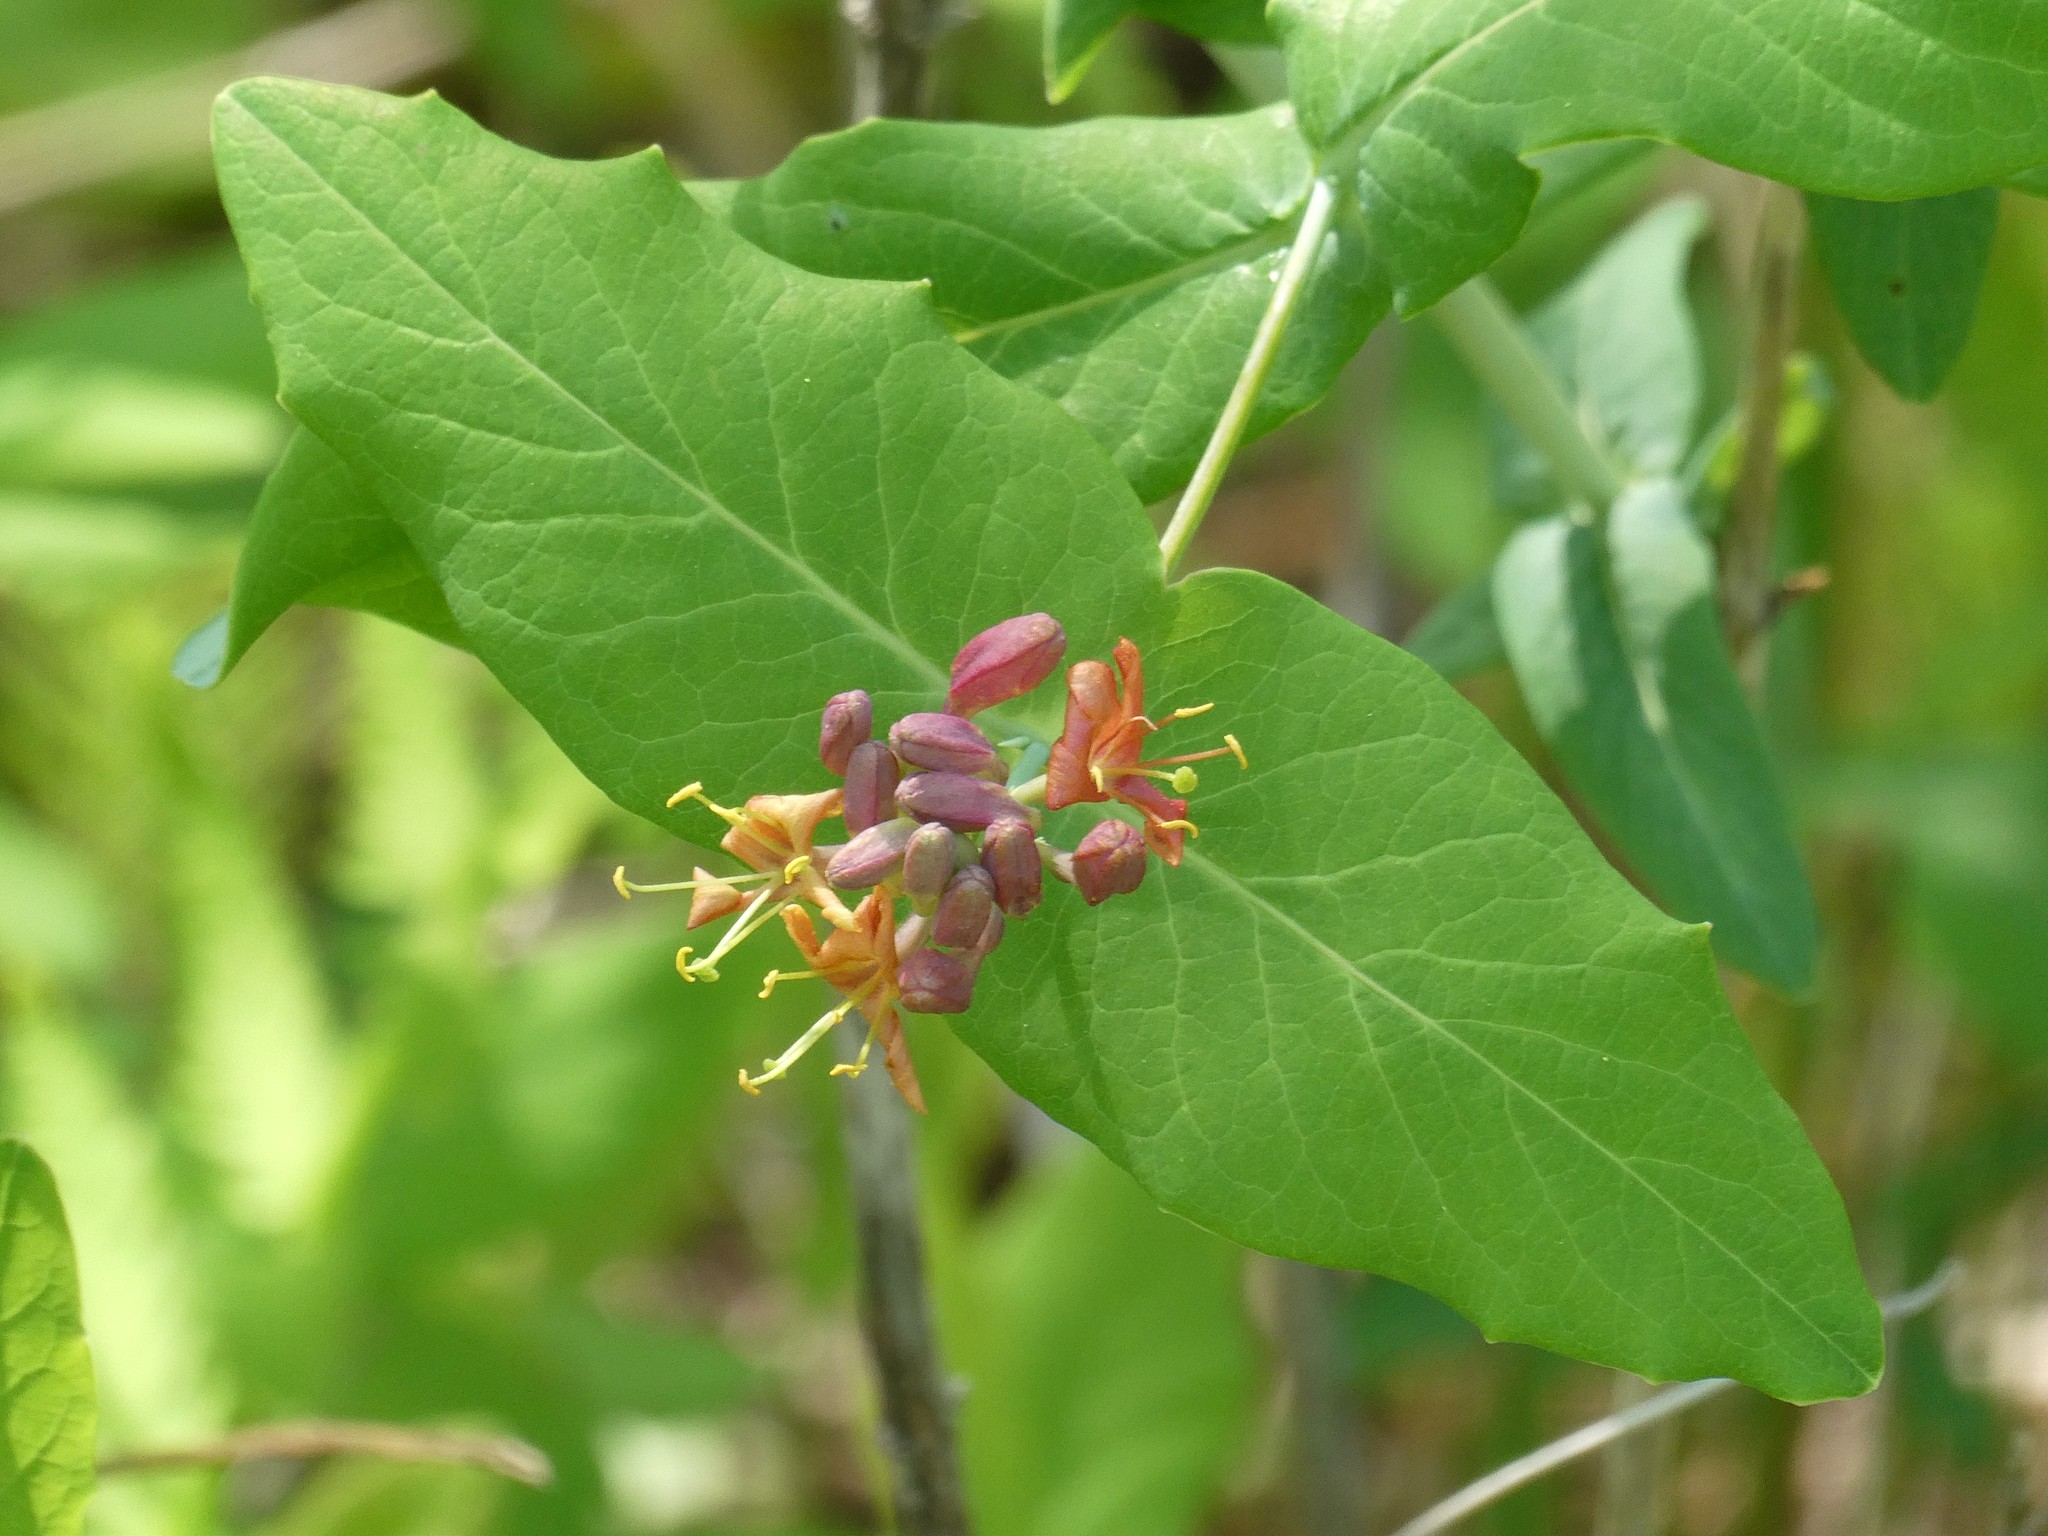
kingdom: Plantae
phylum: Tracheophyta
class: Magnoliopsida
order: Dipsacales
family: Caprifoliaceae
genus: Lonicera
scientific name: Lonicera dioica
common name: Limber honeysuckle
